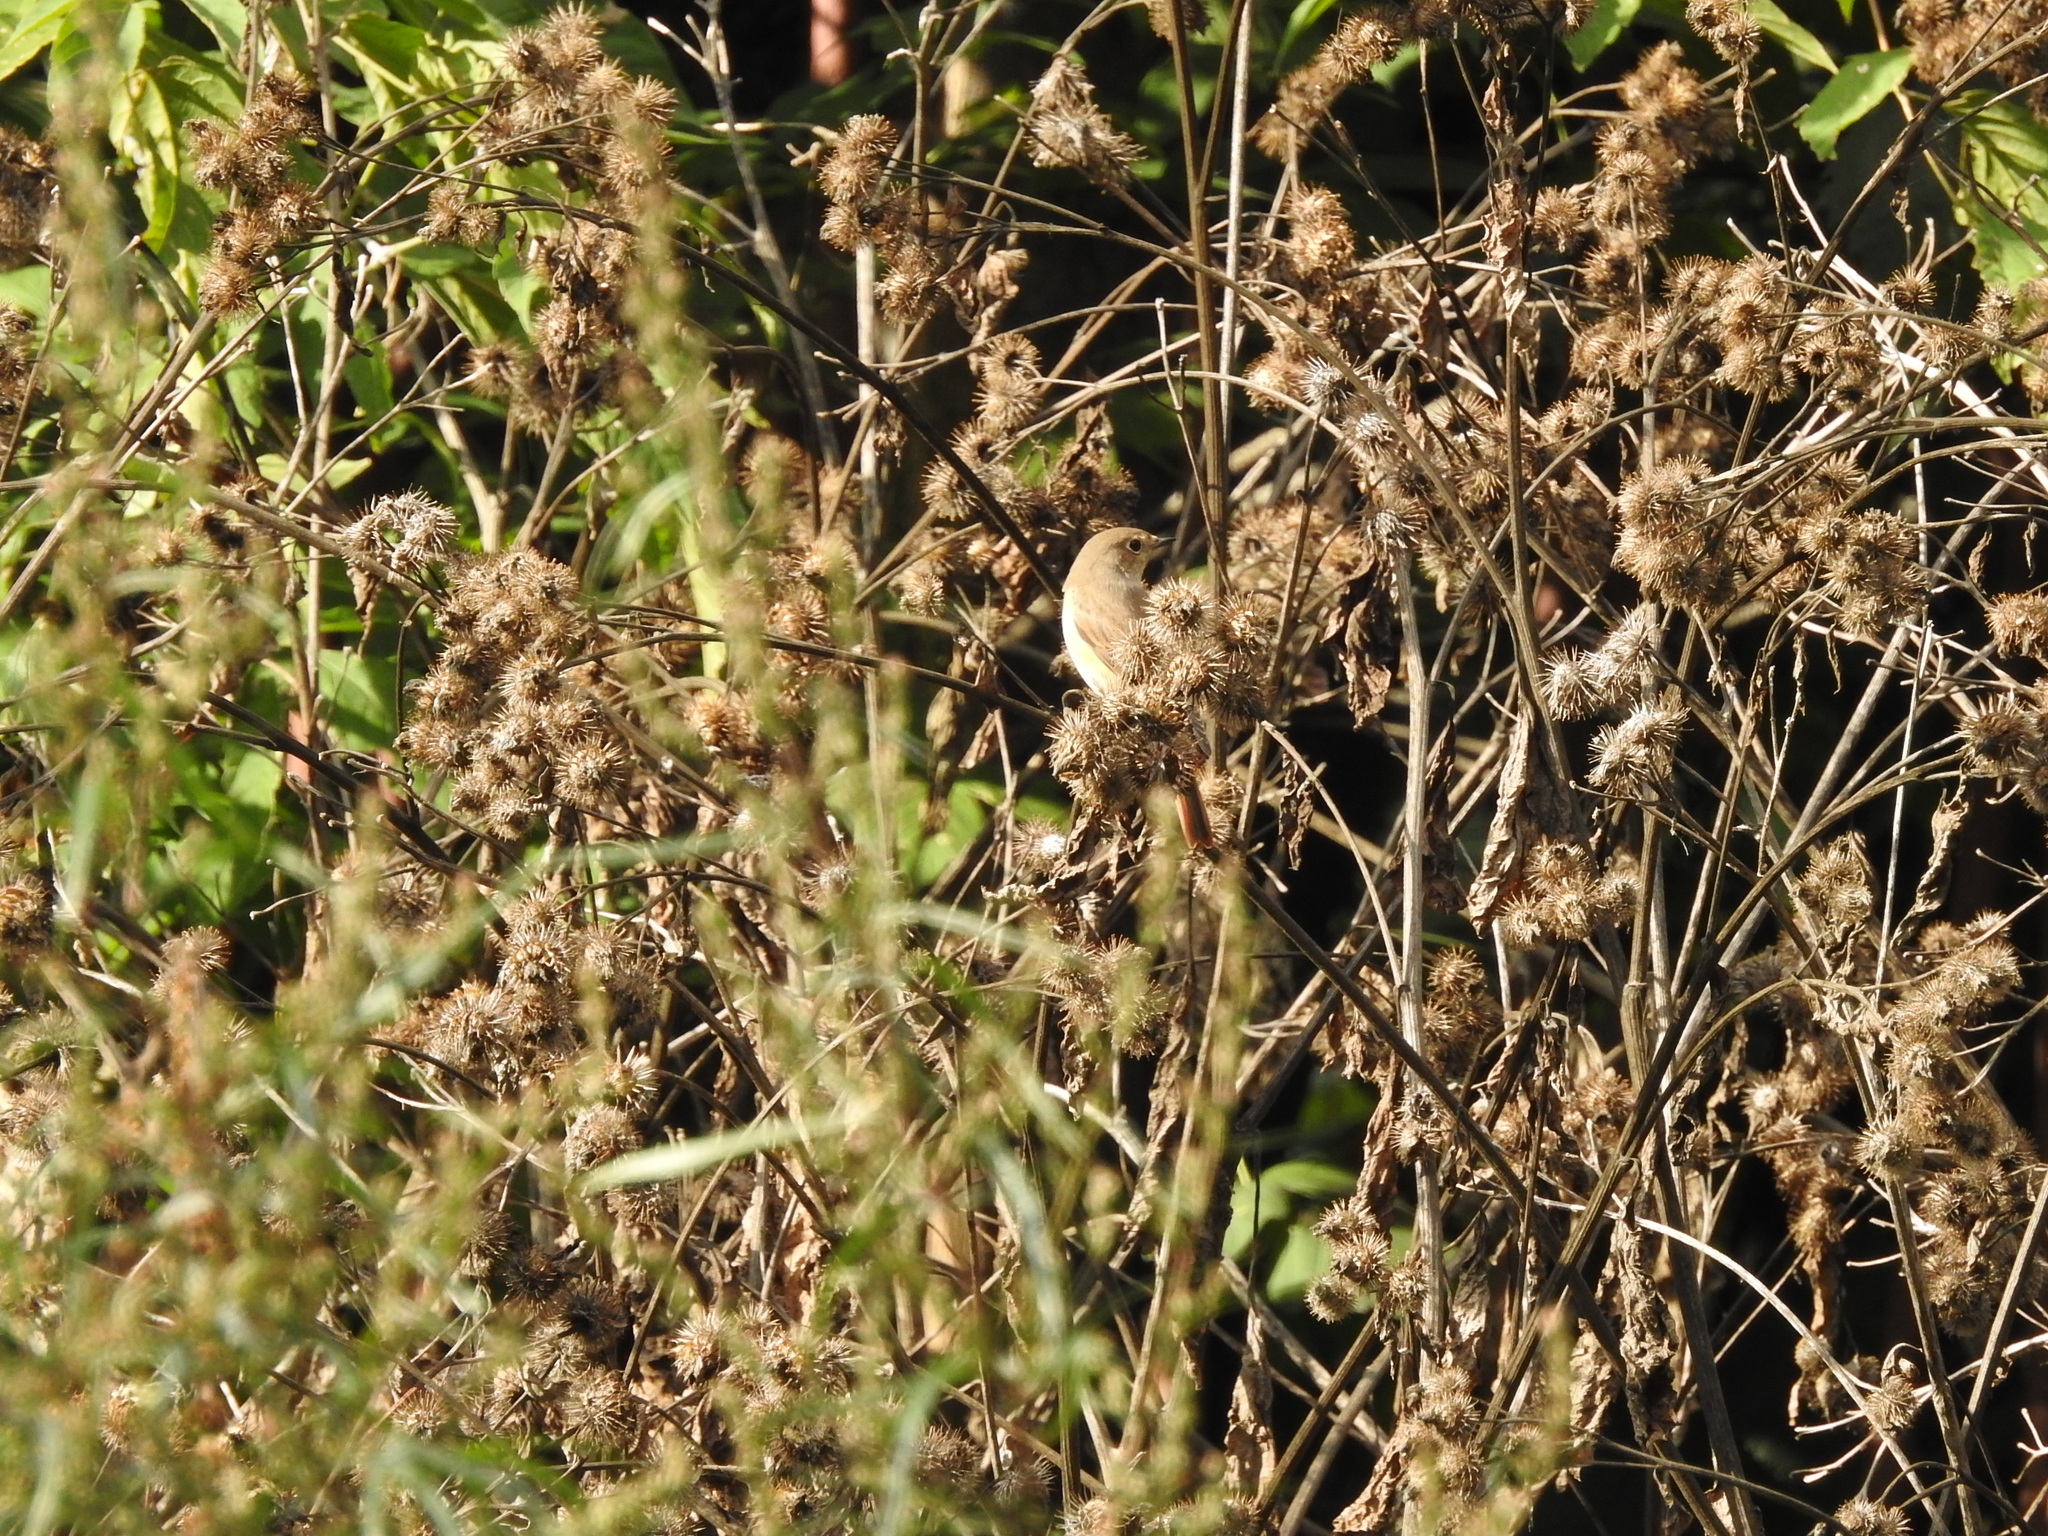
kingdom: Animalia
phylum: Chordata
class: Aves
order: Passeriformes
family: Muscicapidae
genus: Phoenicurus
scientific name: Phoenicurus phoenicurus
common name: Common redstart
